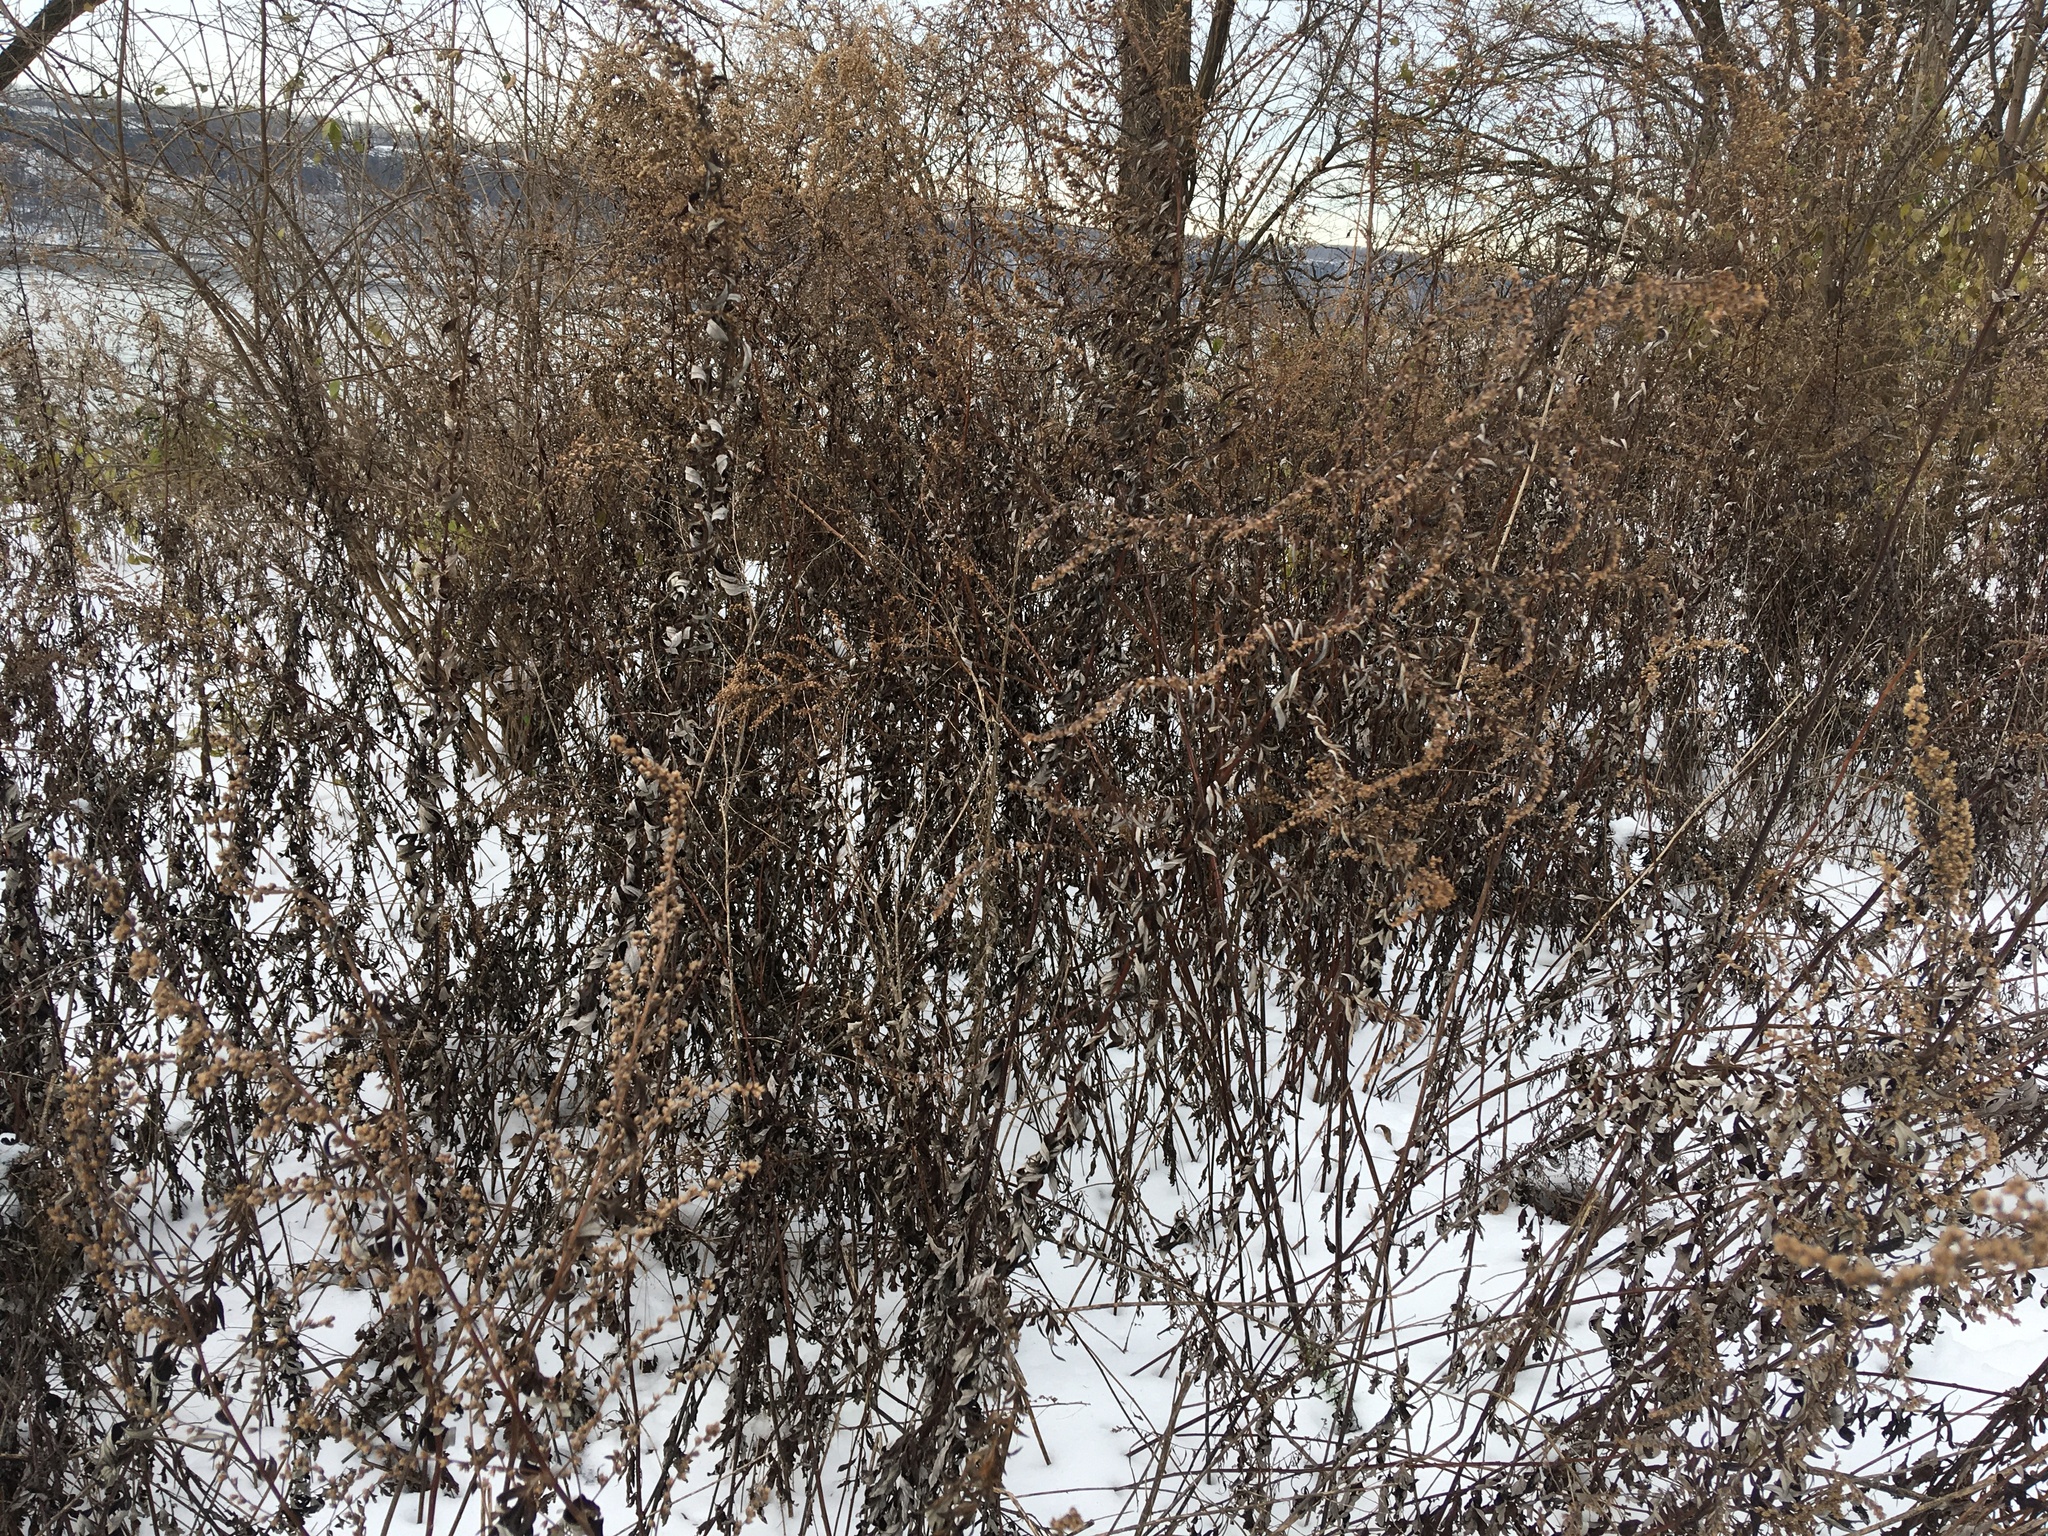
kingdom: Plantae
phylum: Tracheophyta
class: Magnoliopsida
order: Asterales
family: Asteraceae
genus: Artemisia
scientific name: Artemisia vulgaris
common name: Mugwort
